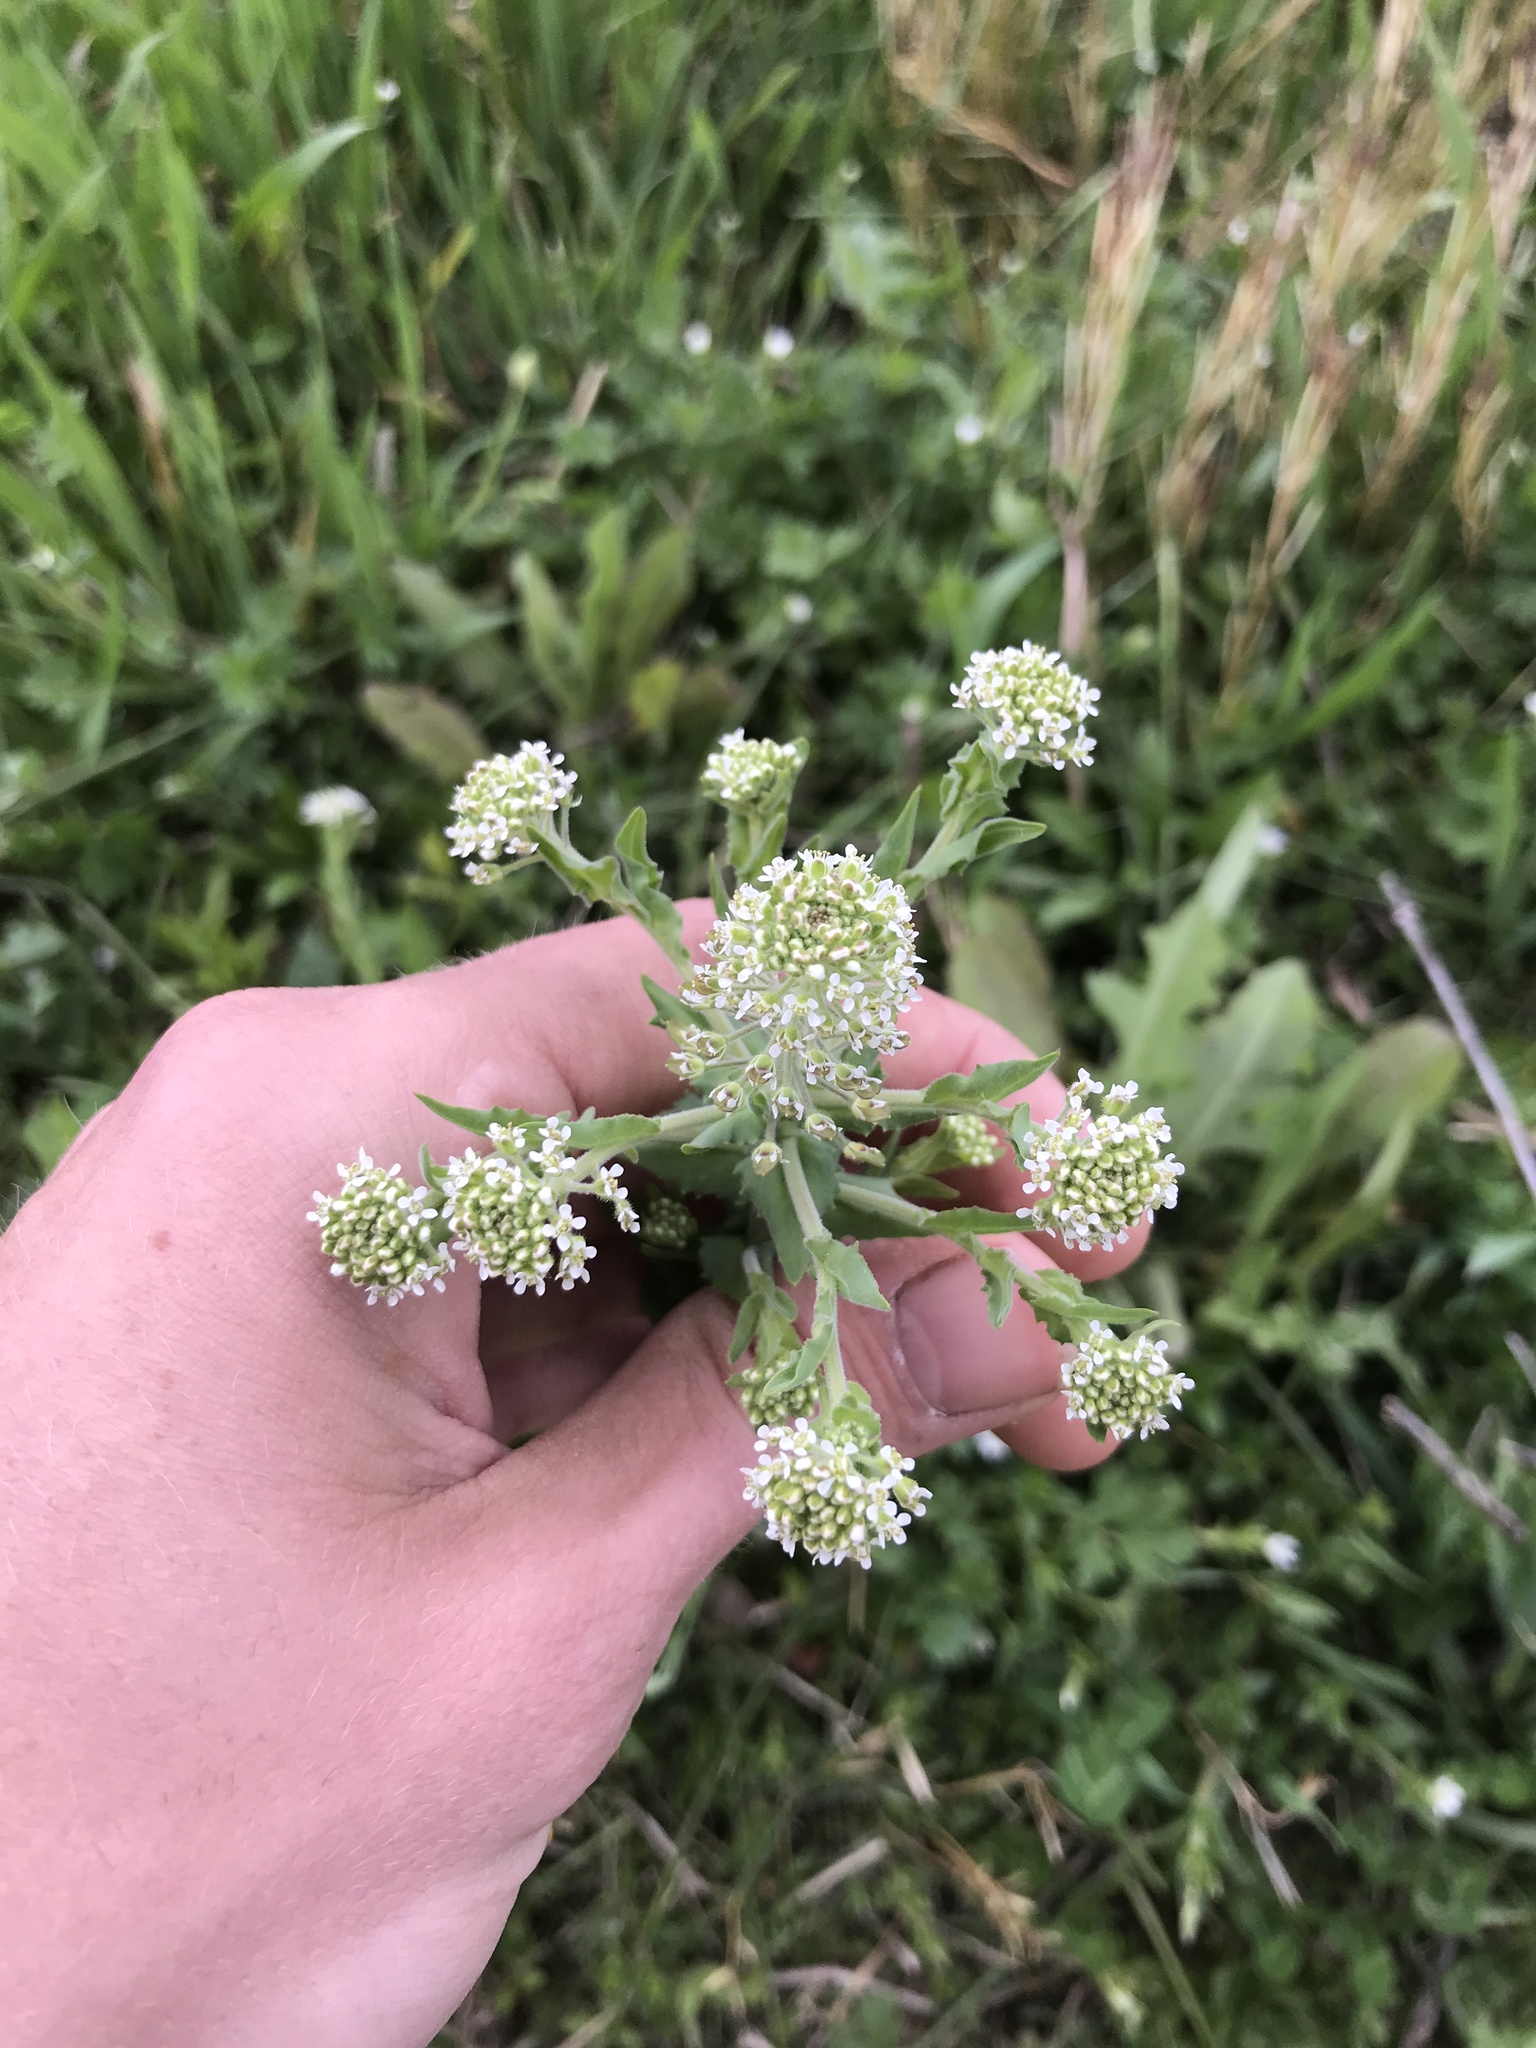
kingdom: Plantae
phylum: Tracheophyta
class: Magnoliopsida
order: Brassicales
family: Brassicaceae
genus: Lepidium
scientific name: Lepidium campestre
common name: Field pepperwort
